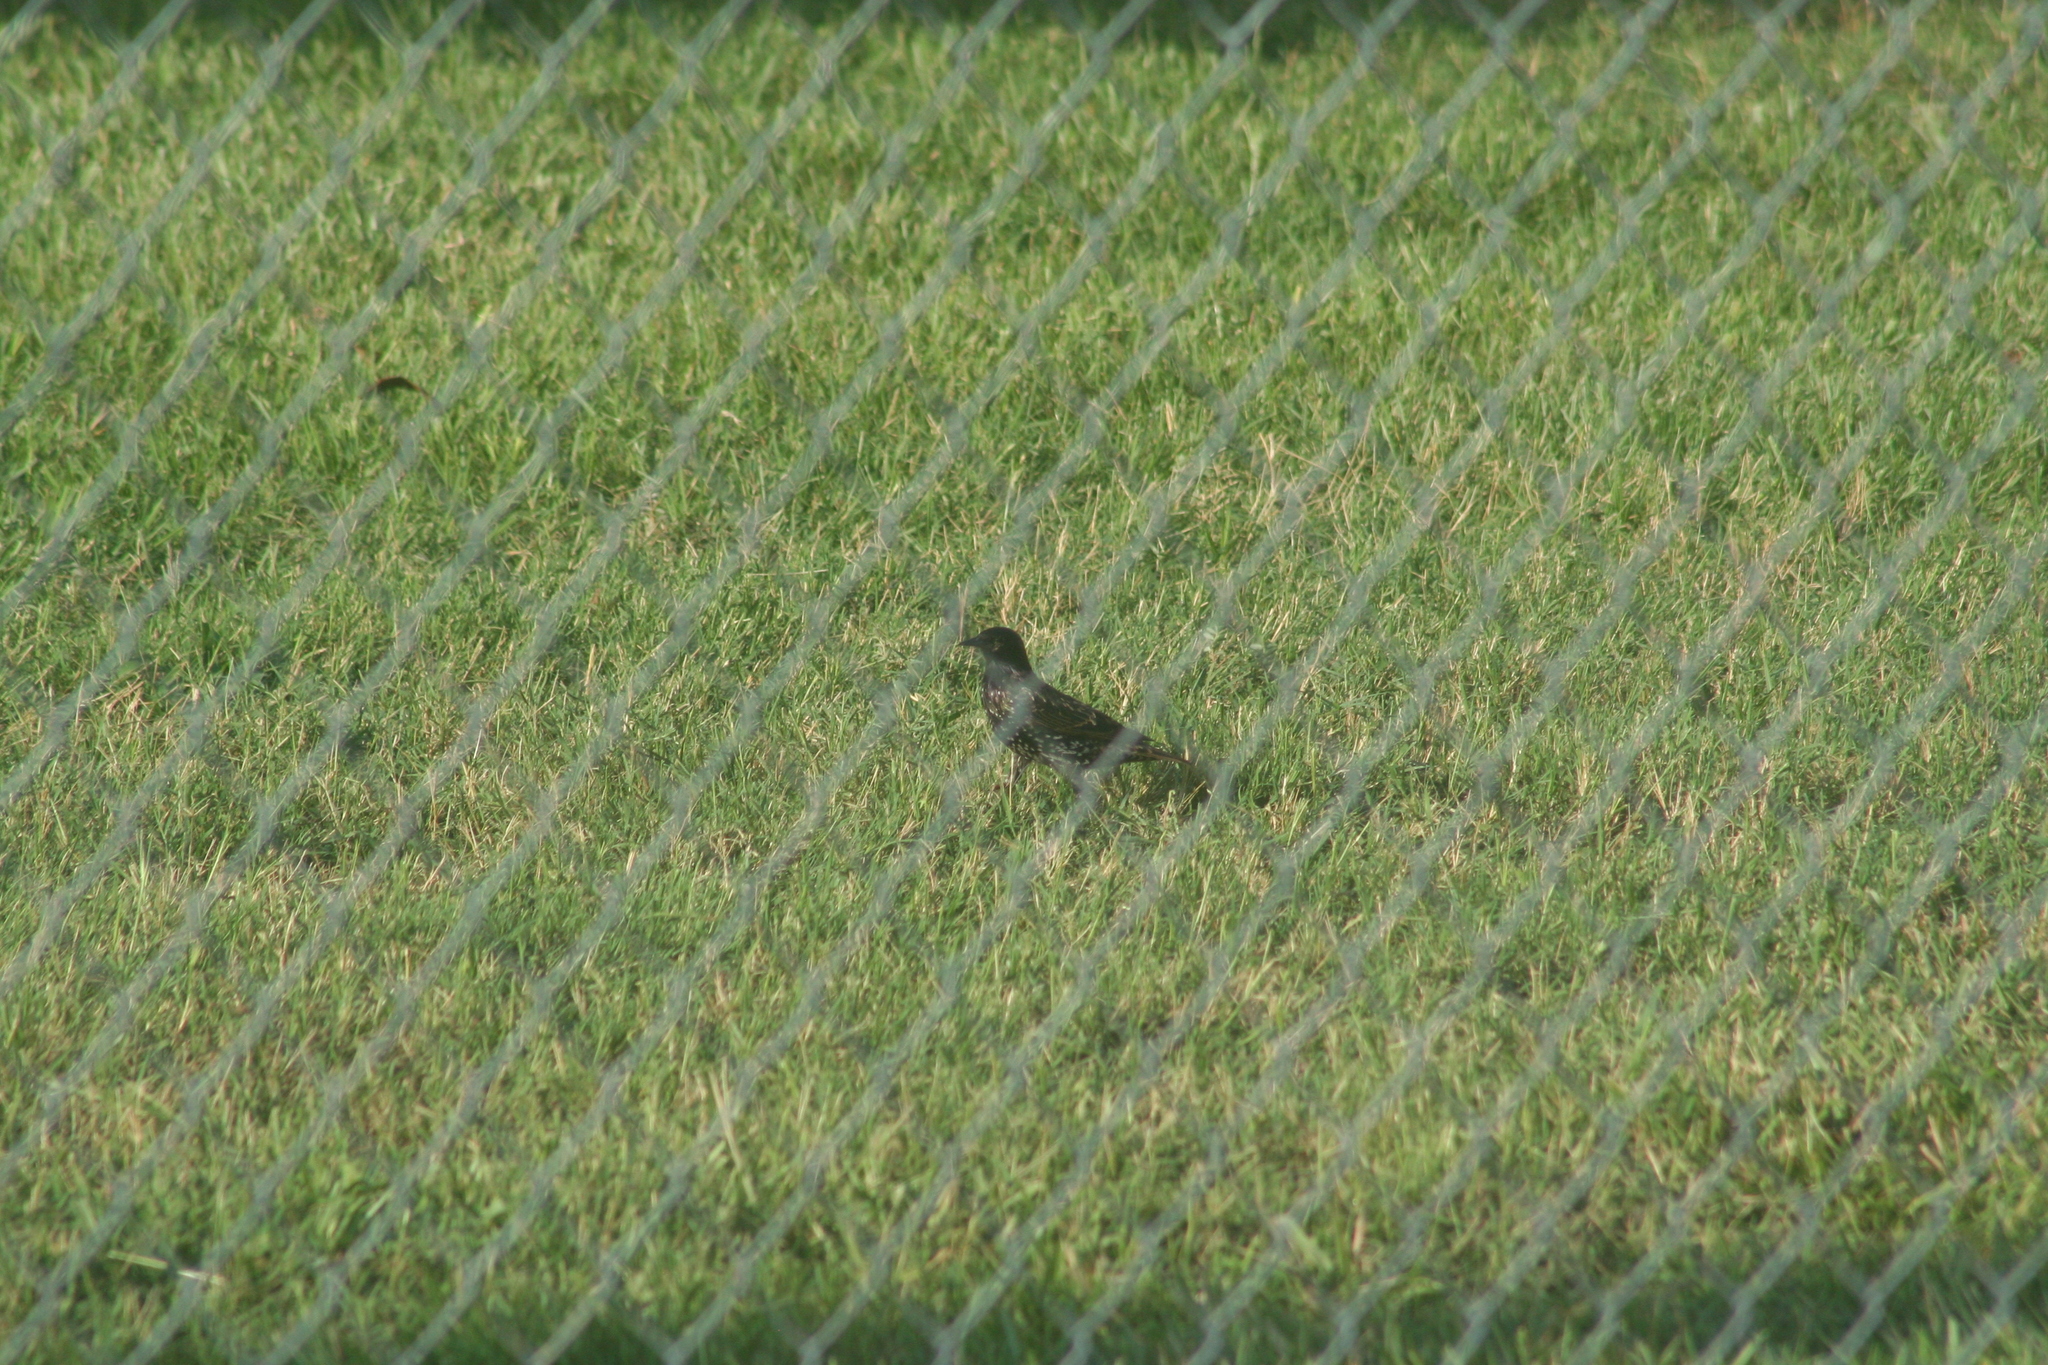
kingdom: Animalia
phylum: Chordata
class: Aves
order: Passeriformes
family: Sturnidae
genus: Sturnus
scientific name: Sturnus vulgaris
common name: Common starling
